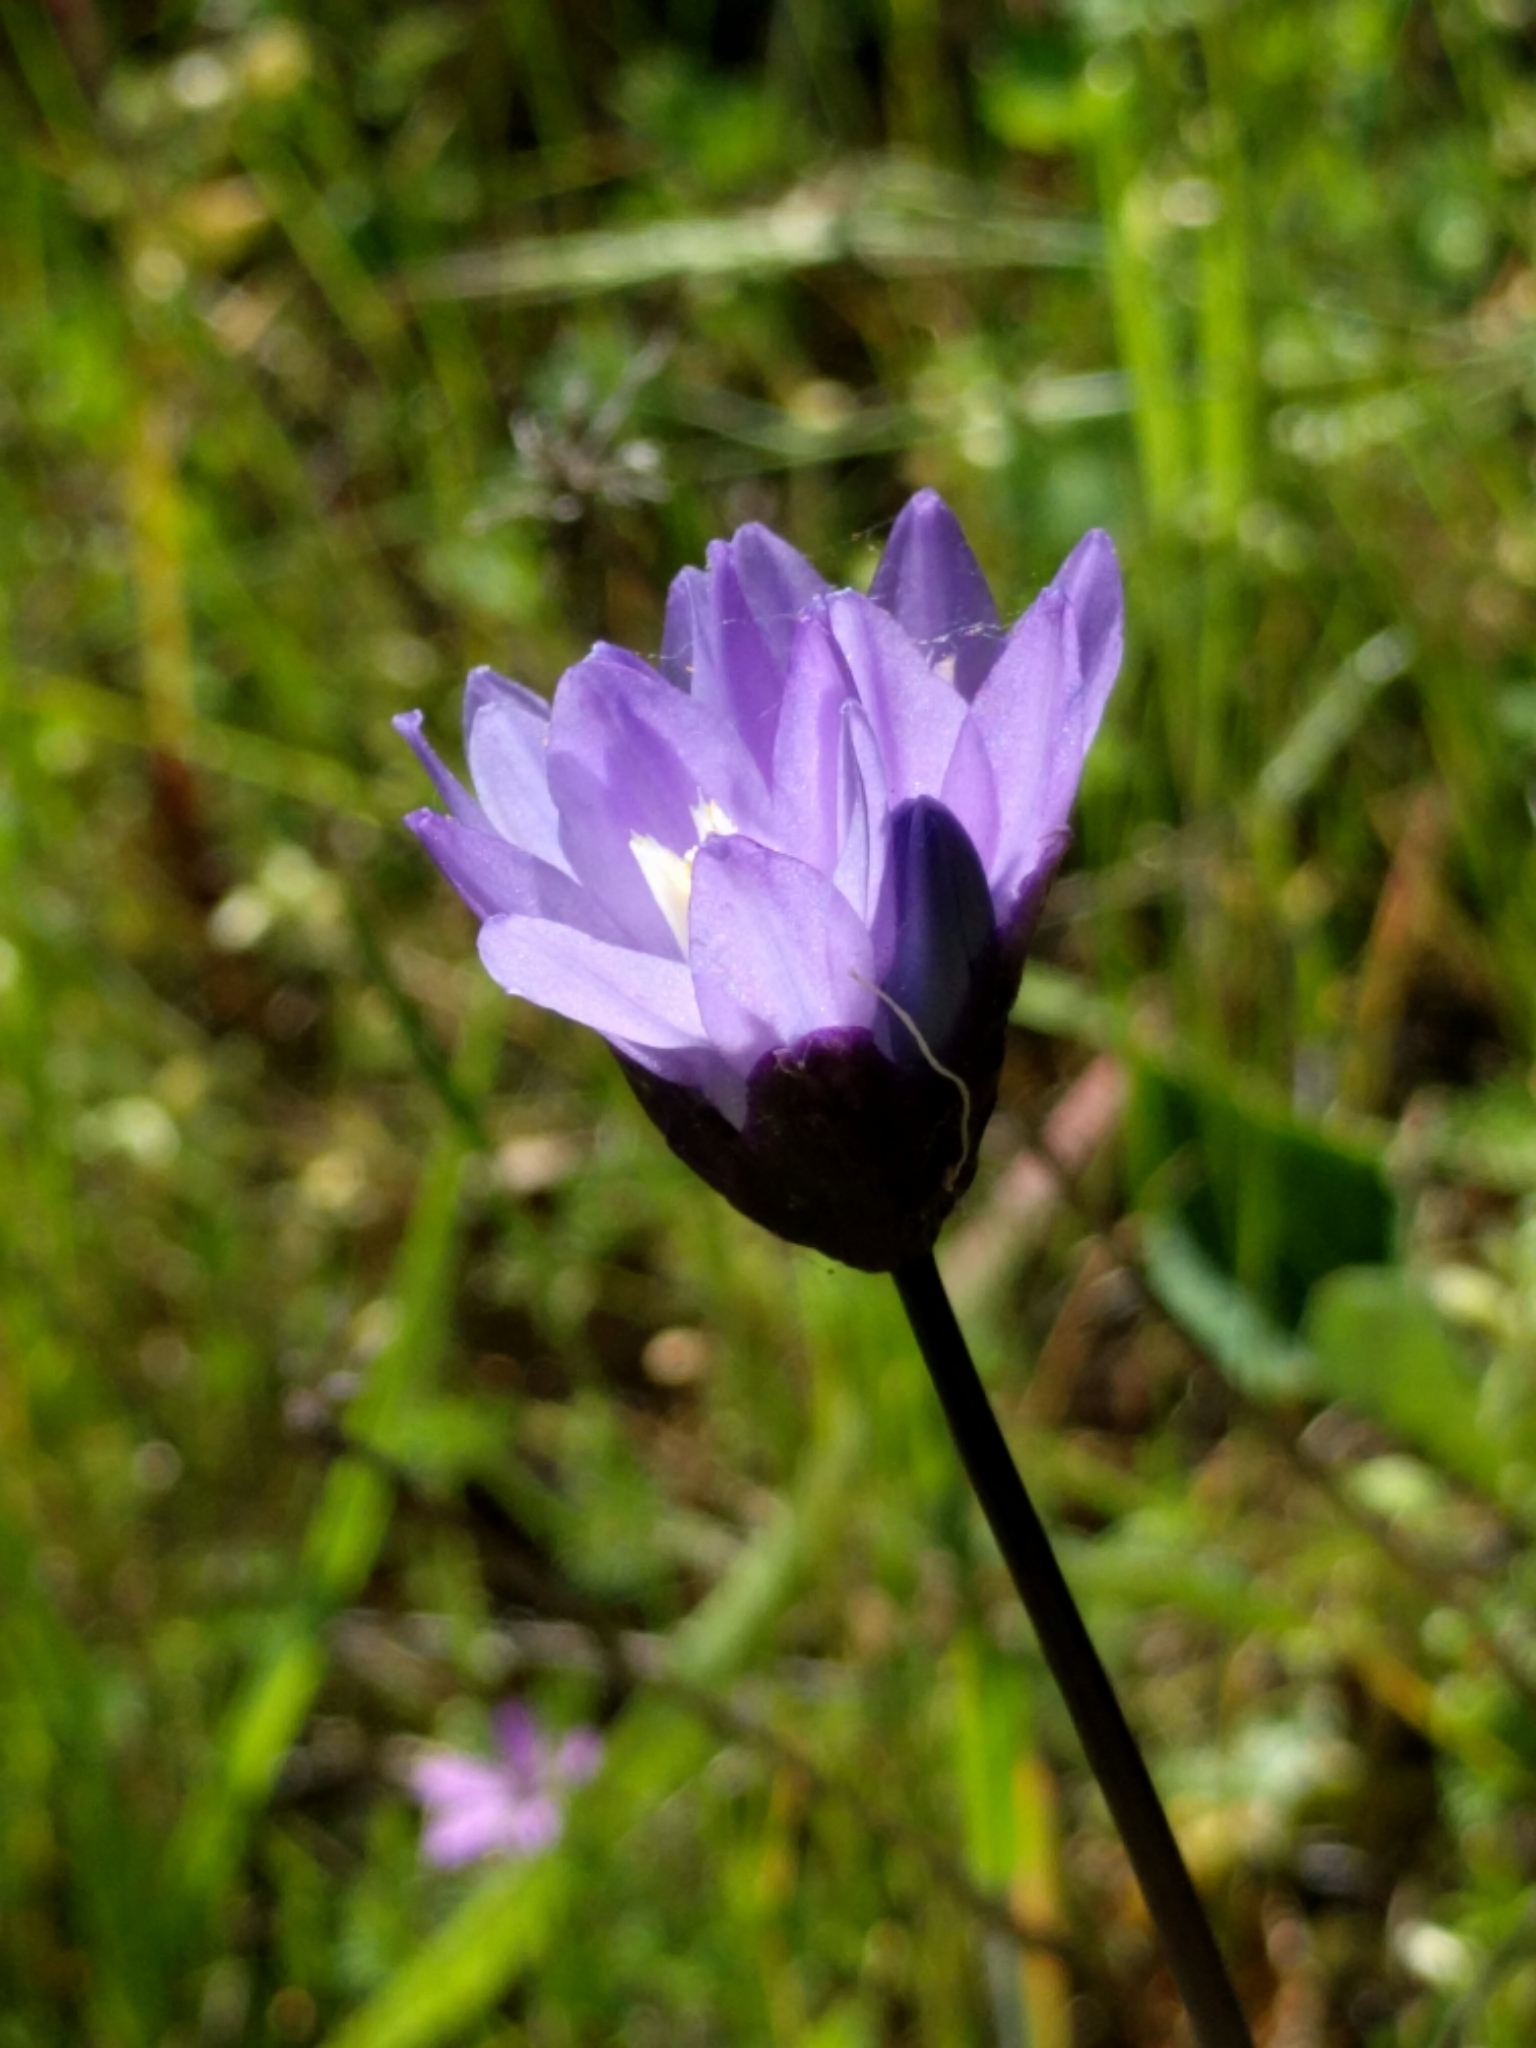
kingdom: Plantae
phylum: Tracheophyta
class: Liliopsida
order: Asparagales
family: Asparagaceae
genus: Dipterostemon
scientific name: Dipterostemon capitatus
